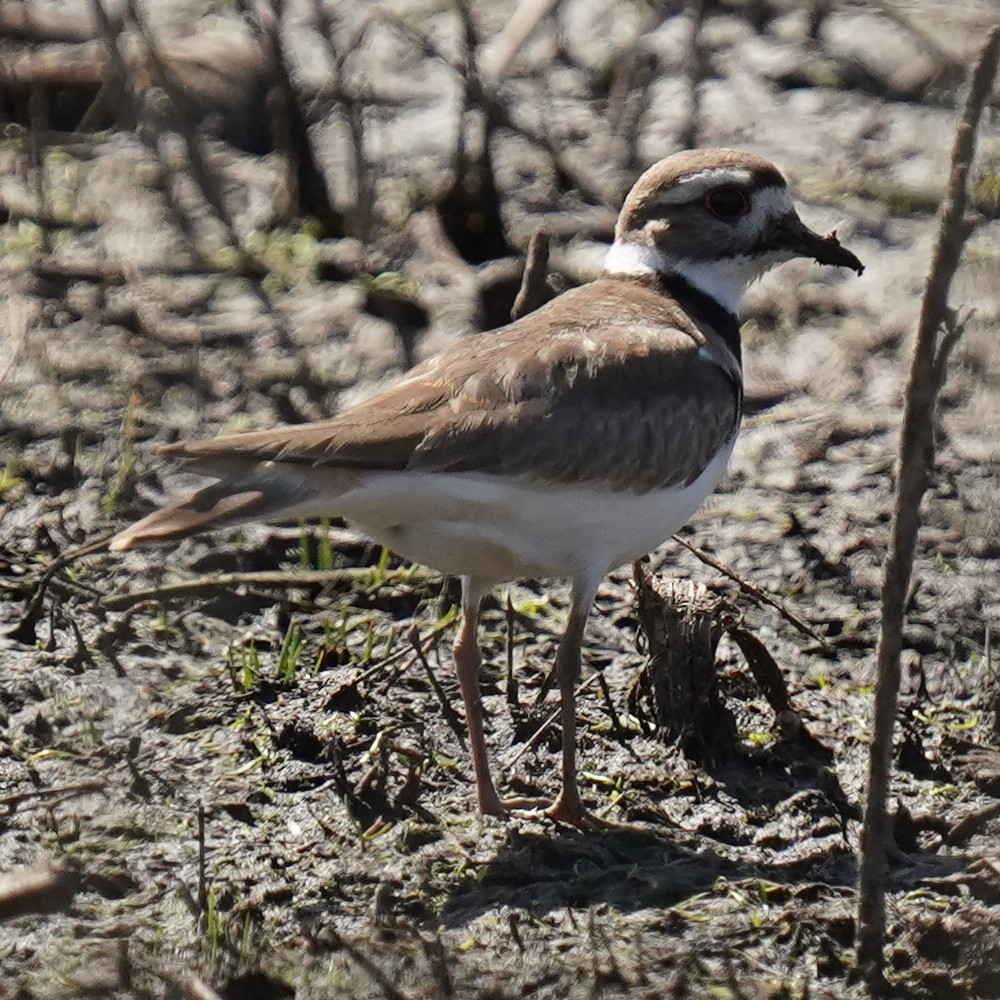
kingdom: Animalia
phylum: Chordata
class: Aves
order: Charadriiformes
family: Charadriidae
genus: Charadrius
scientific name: Charadrius vociferus
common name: Killdeer
